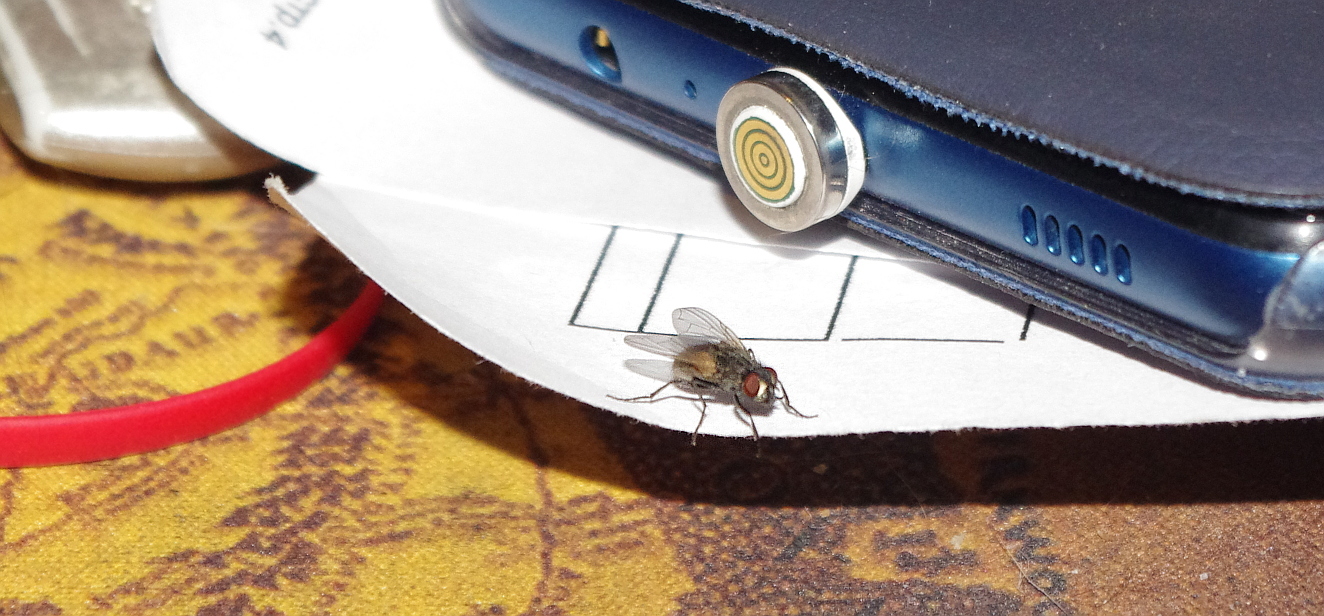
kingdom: Animalia
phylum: Arthropoda
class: Insecta
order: Diptera
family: Muscidae
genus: Musca
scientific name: Musca domestica
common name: House fly
